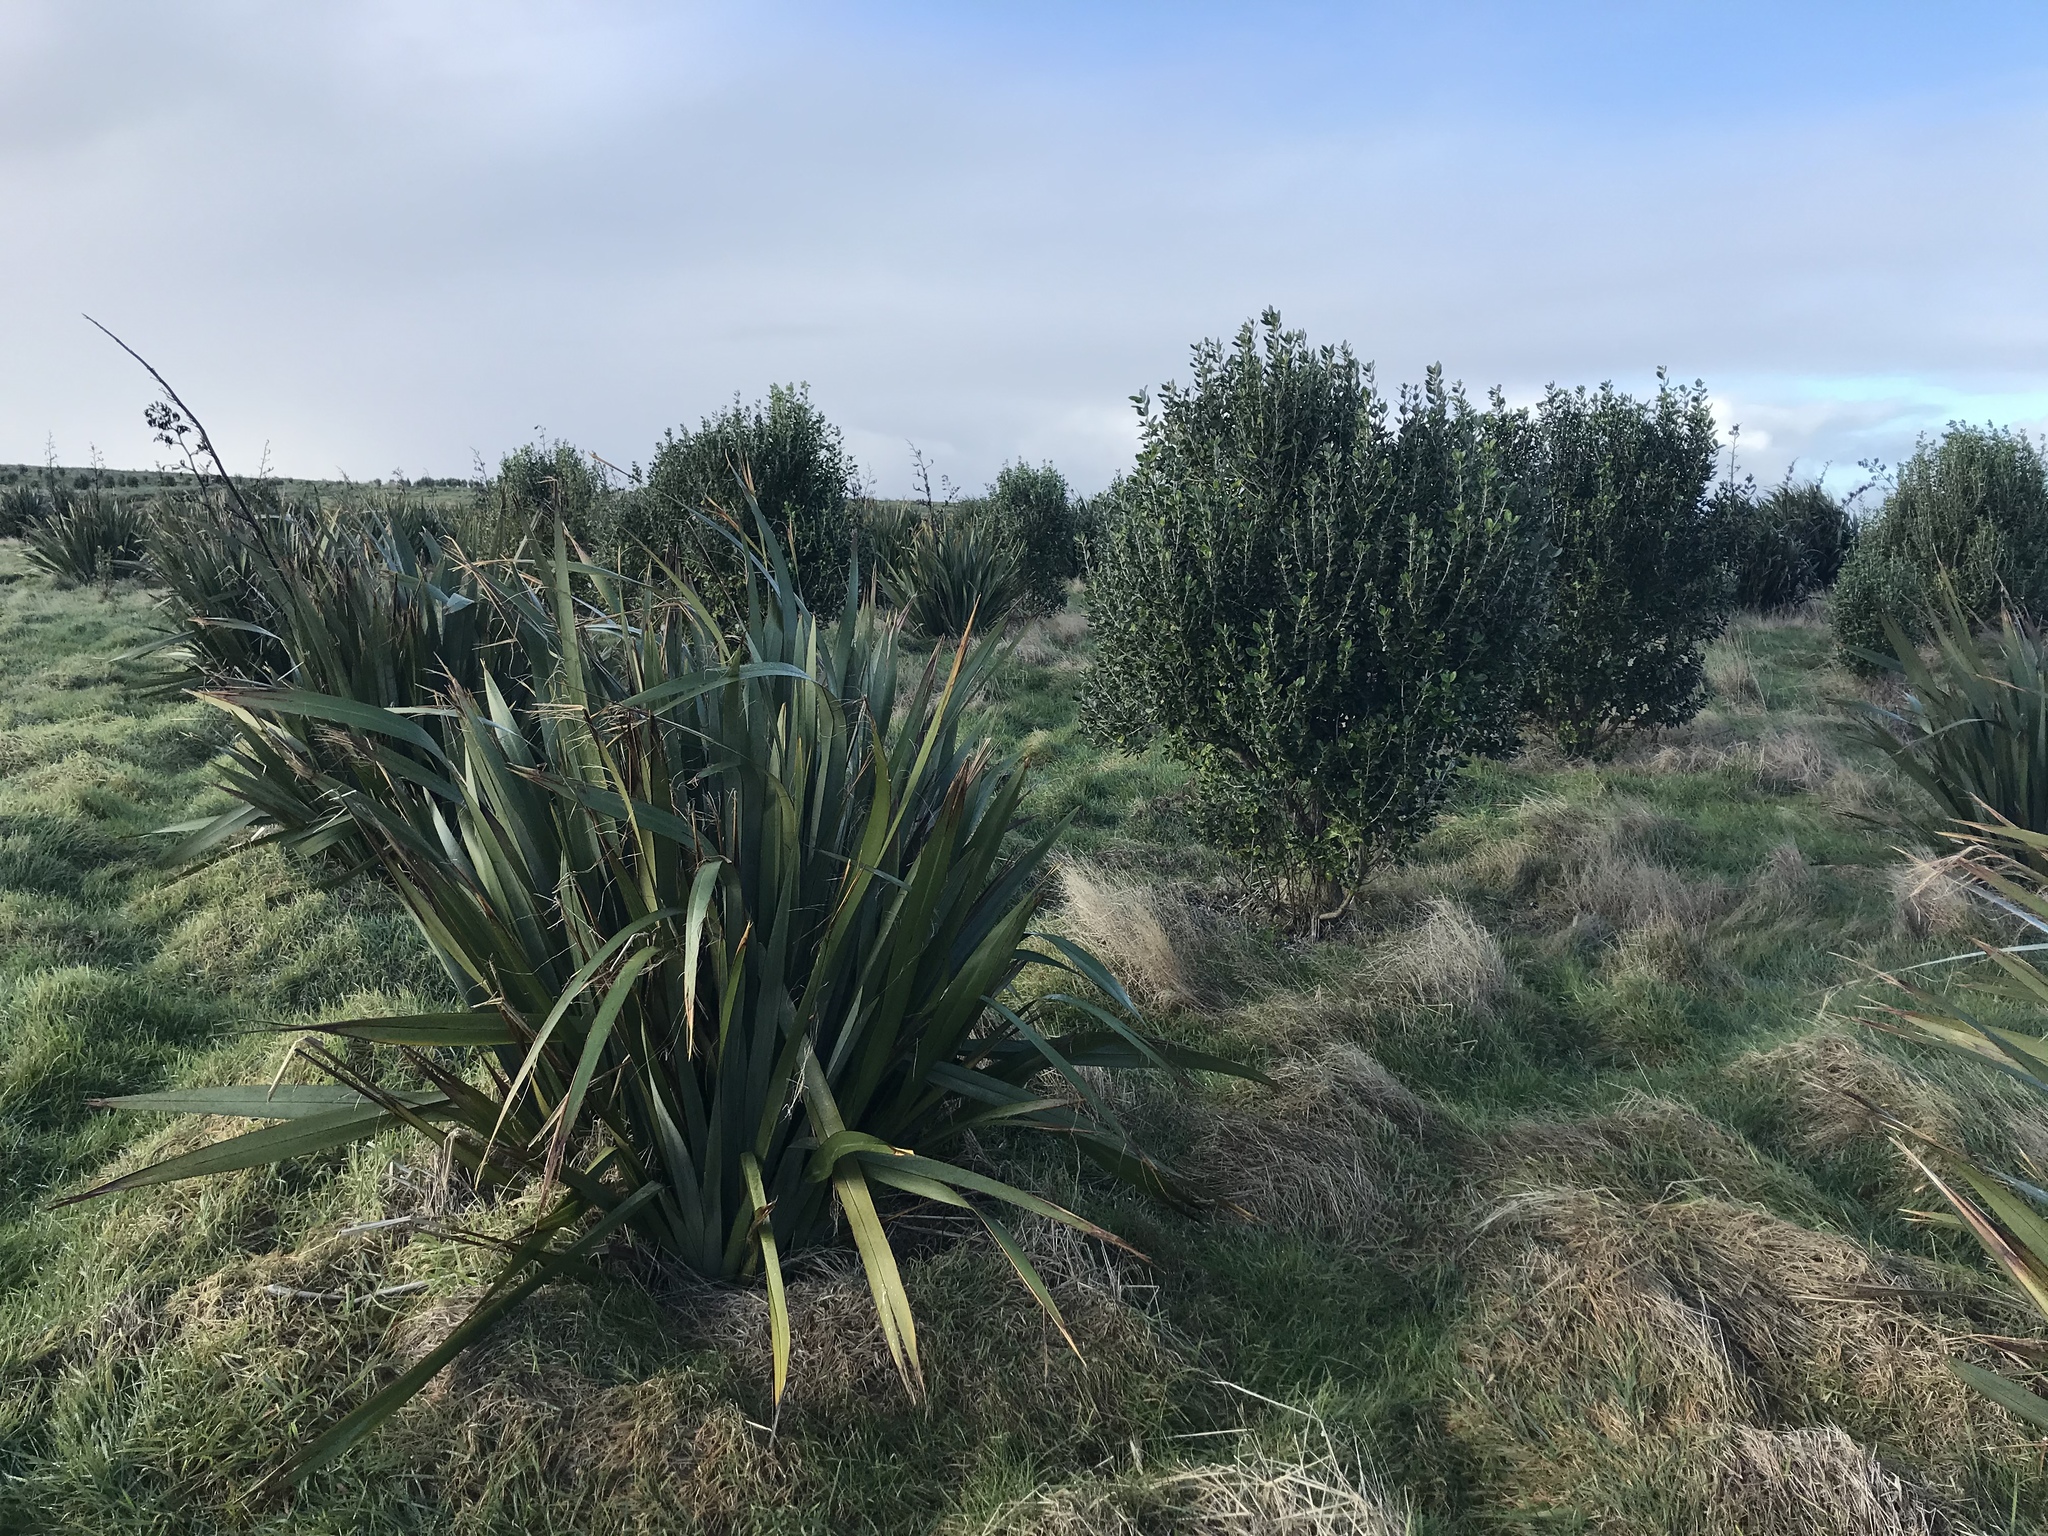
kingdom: Plantae
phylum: Tracheophyta
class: Liliopsida
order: Asparagales
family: Asphodelaceae
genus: Phormium
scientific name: Phormium tenax
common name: New zealand flax
